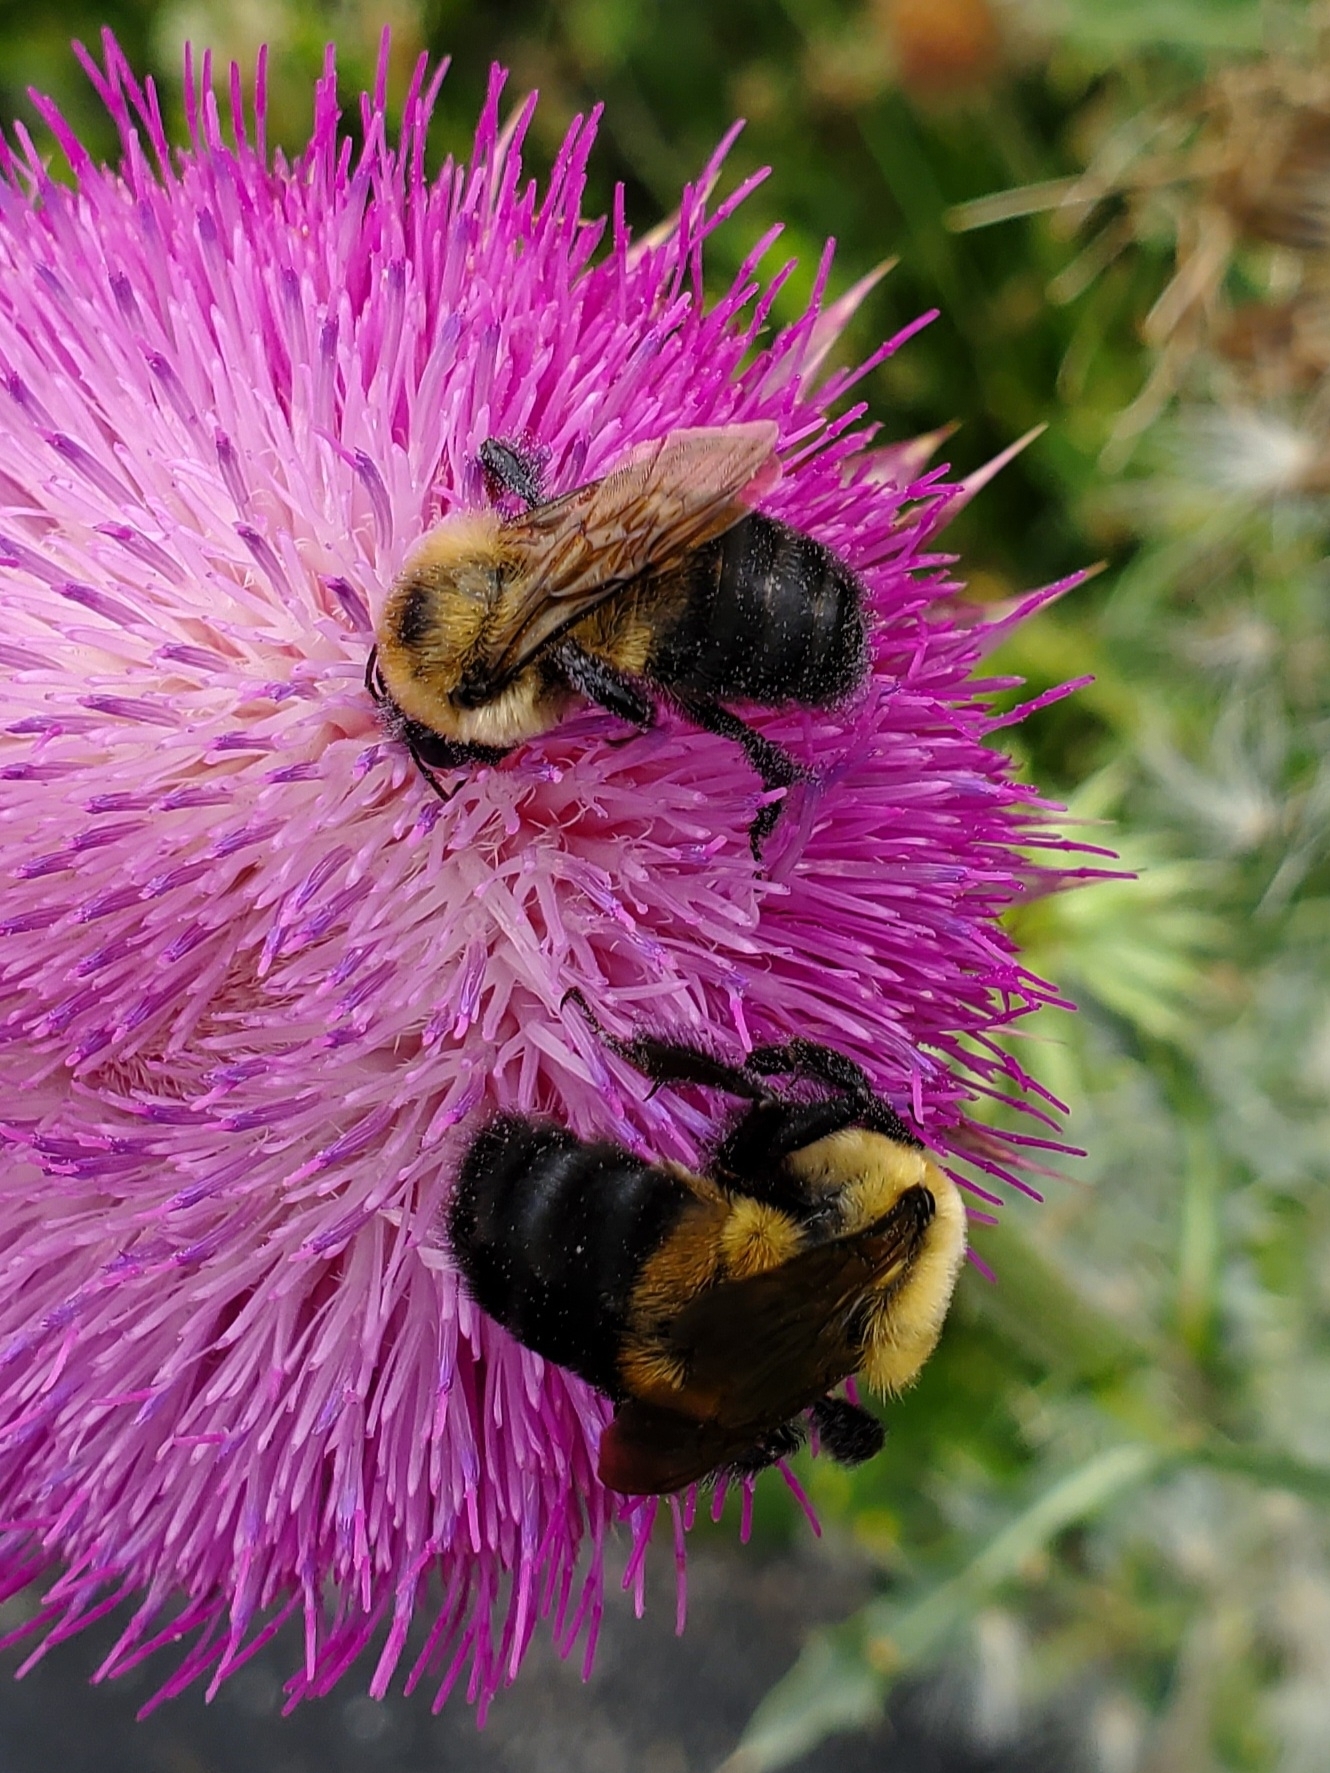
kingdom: Animalia
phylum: Arthropoda
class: Insecta
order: Hymenoptera
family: Apidae
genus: Bombus
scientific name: Bombus griseocollis
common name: Brown-belted bumble bee
